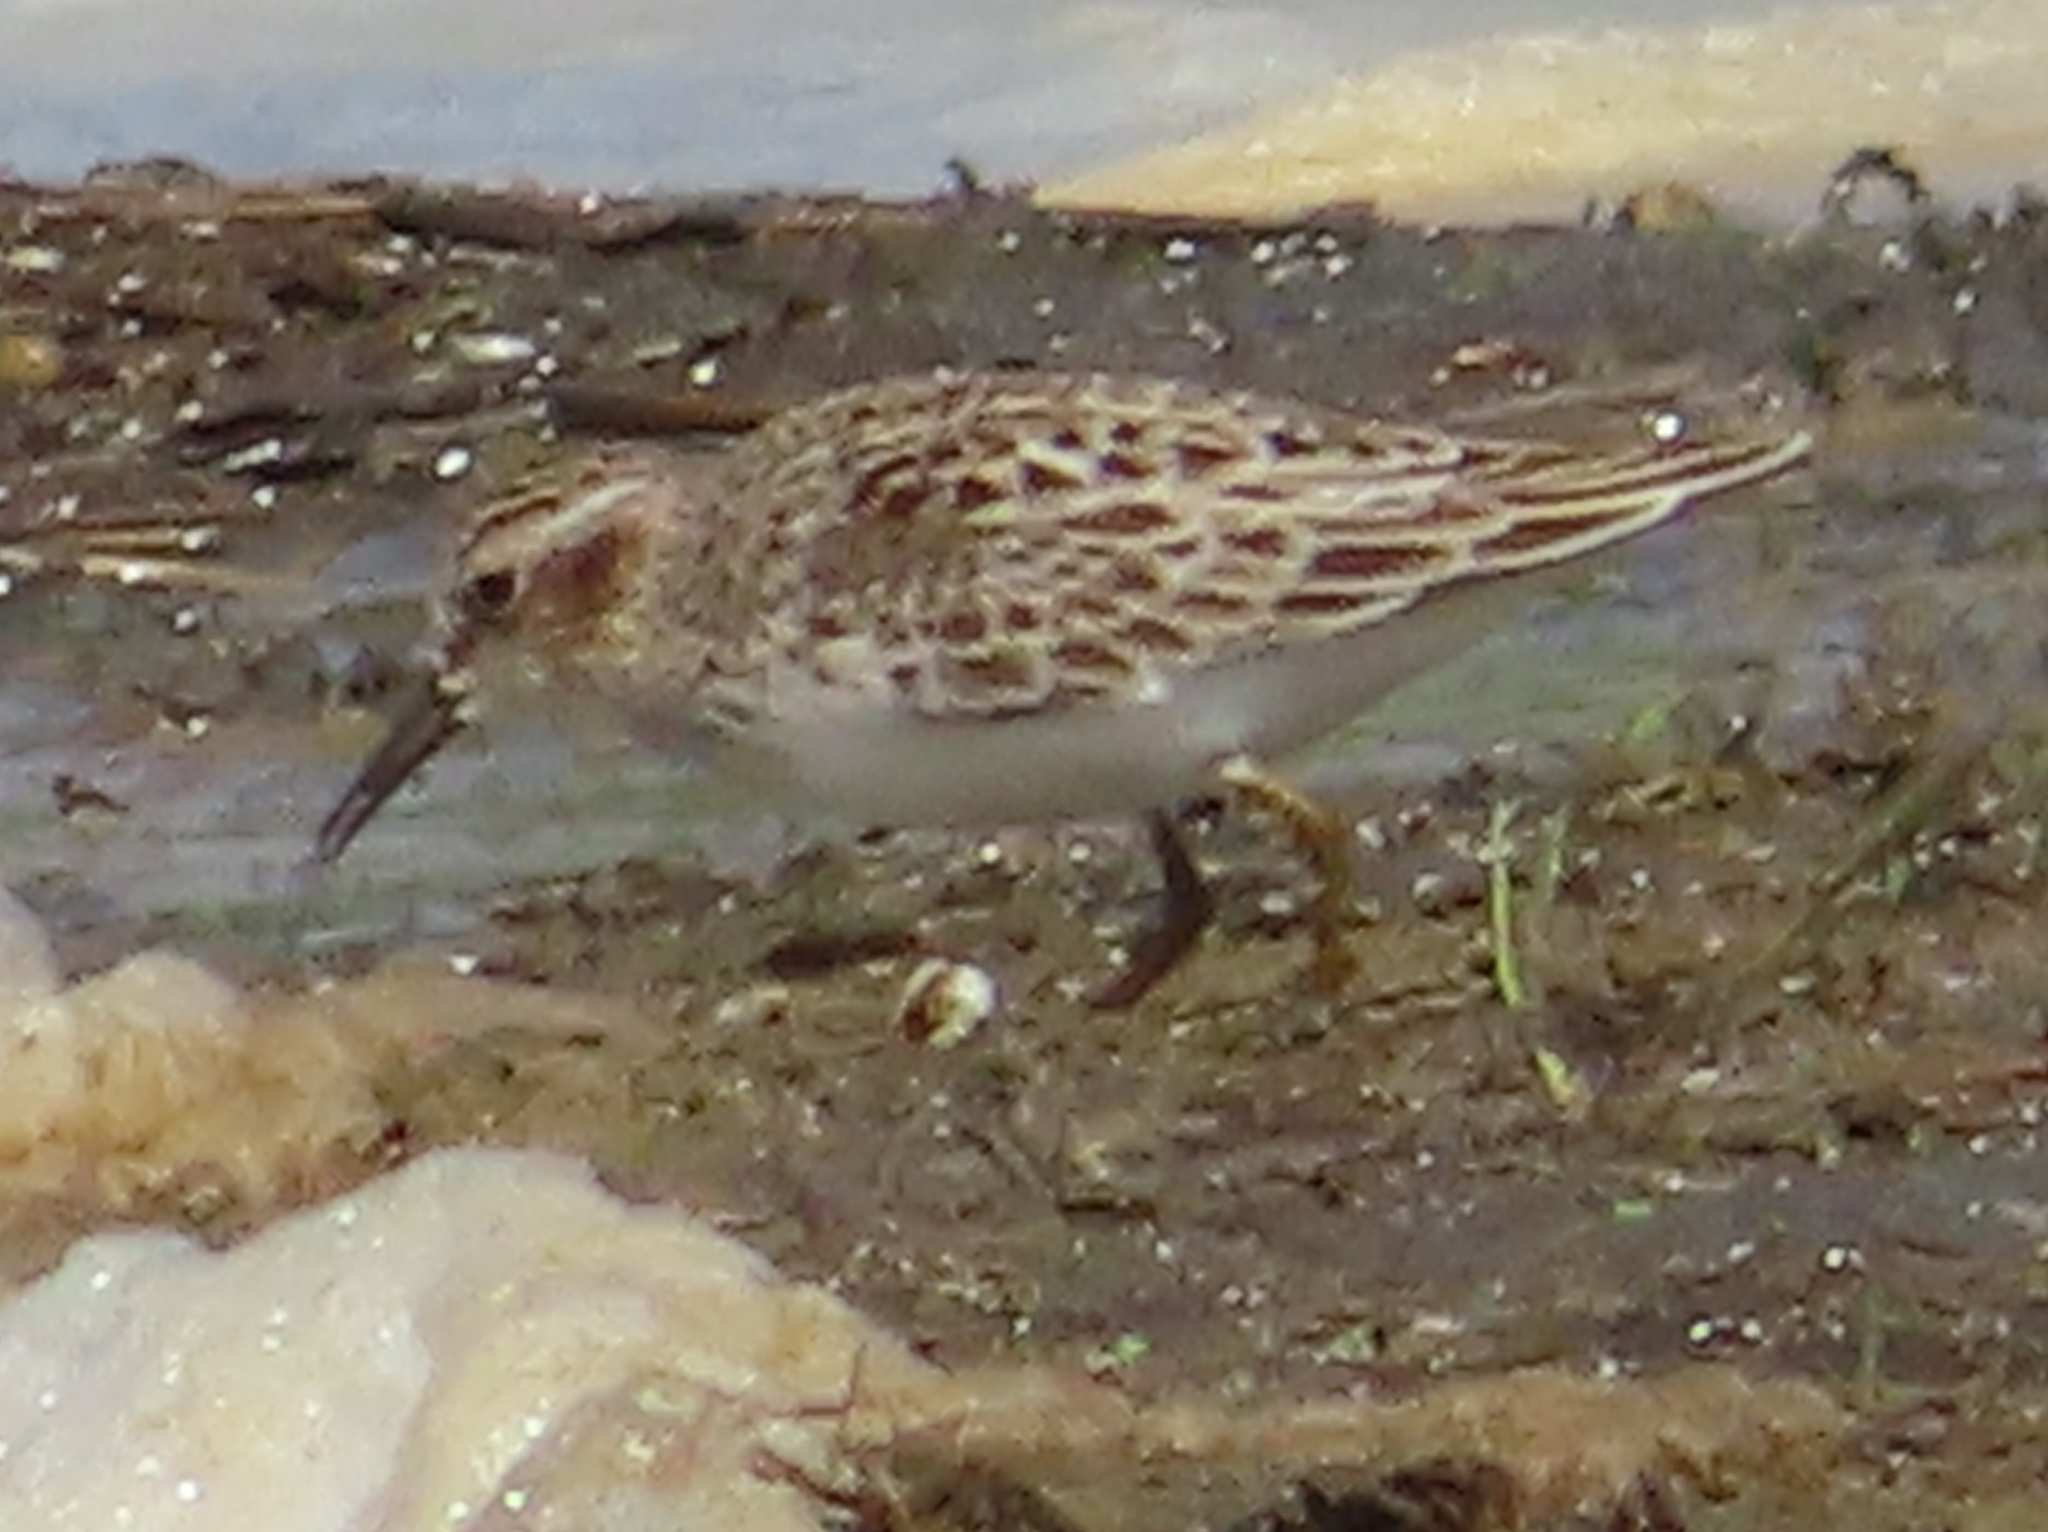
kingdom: Animalia
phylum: Chordata
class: Aves
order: Charadriiformes
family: Scolopacidae
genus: Calidris
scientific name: Calidris minutilla
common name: Least sandpiper
